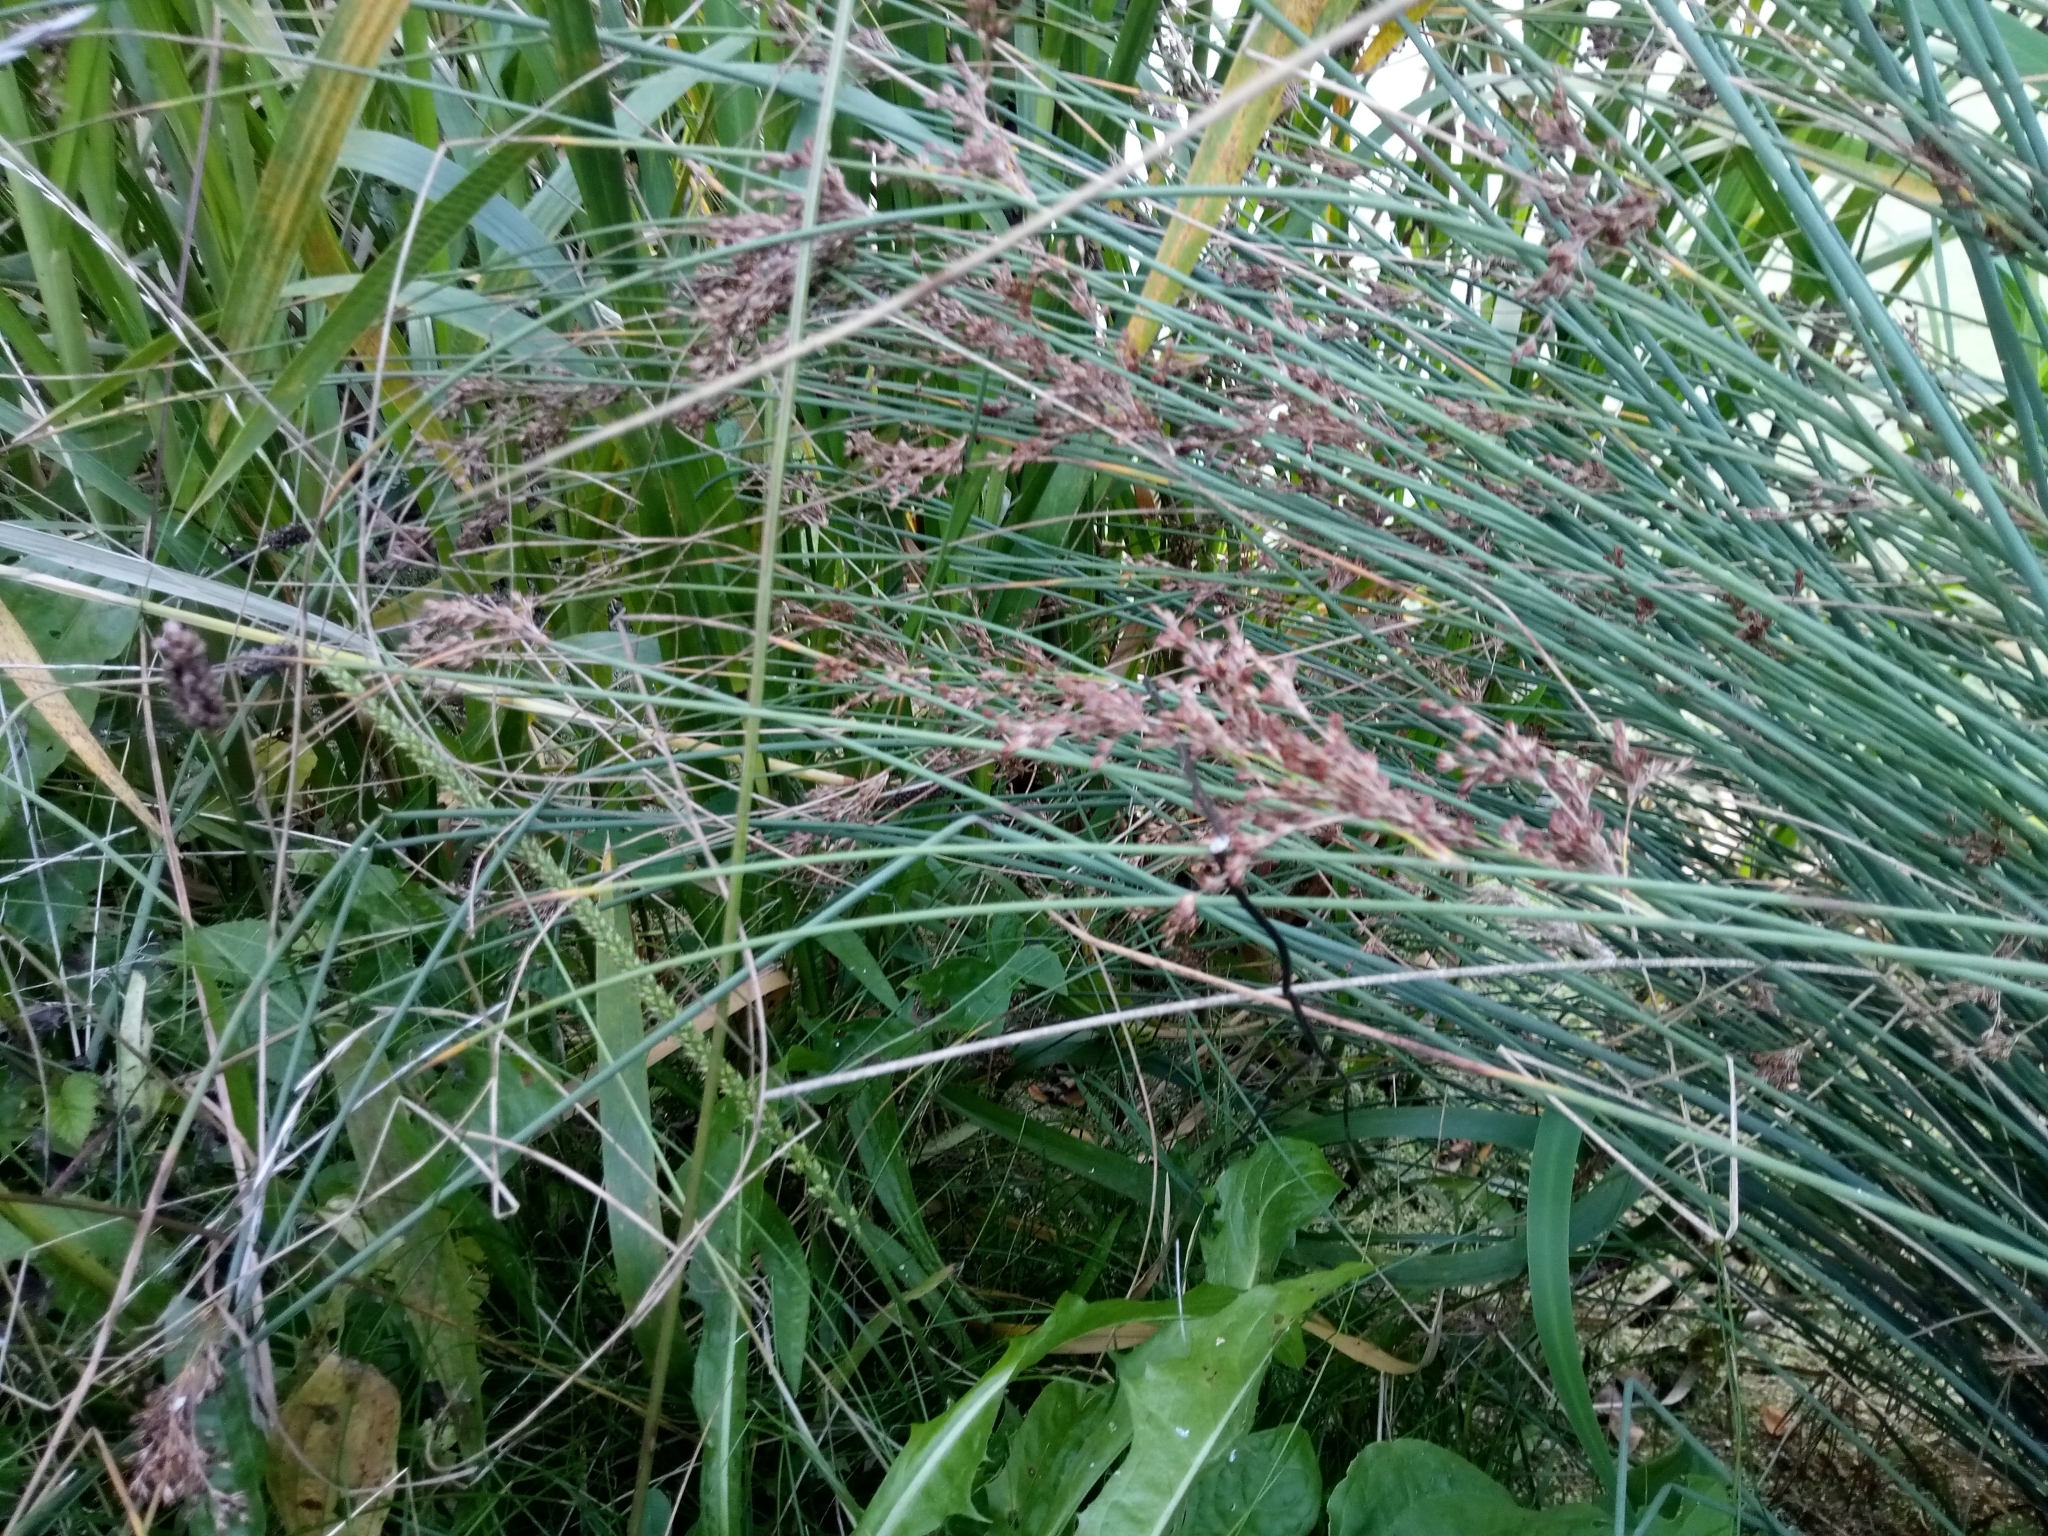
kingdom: Plantae
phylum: Tracheophyta
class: Liliopsida
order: Poales
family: Juncaceae
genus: Juncus
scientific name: Juncus inflexus
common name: Hard rush
